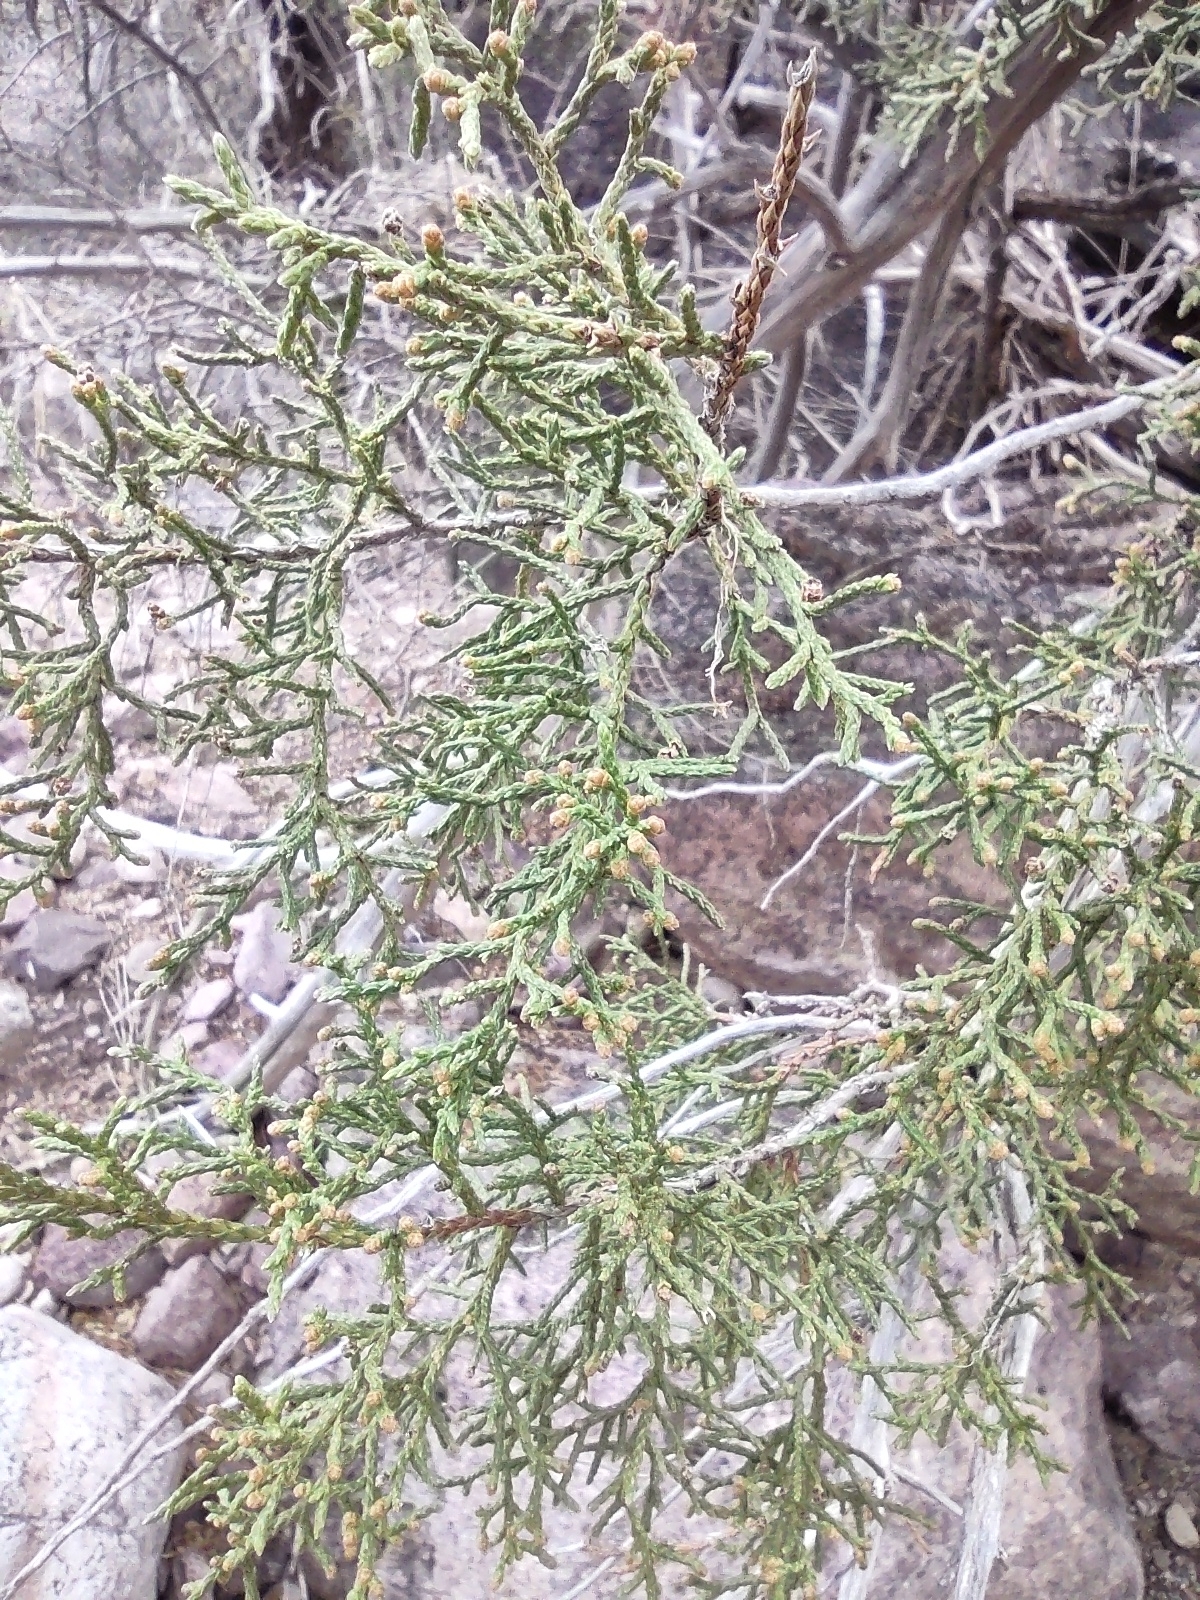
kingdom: Plantae
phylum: Tracheophyta
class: Pinopsida
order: Pinales
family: Cupressaceae
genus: Juniperus
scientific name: Juniperus arizonica
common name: Arizona juniper
